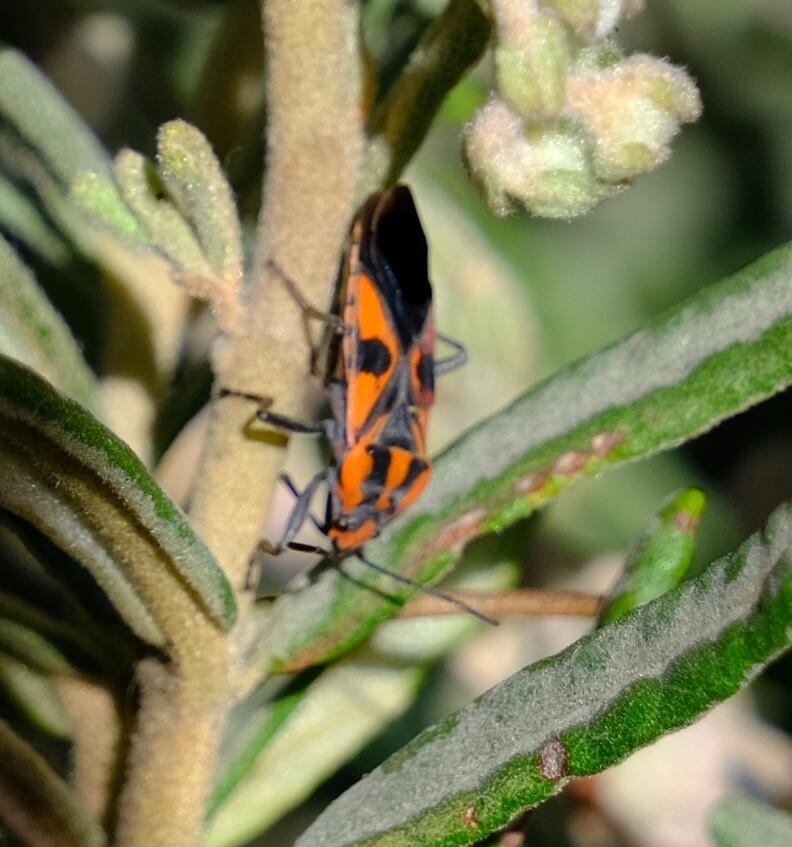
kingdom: Animalia
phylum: Arthropoda
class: Insecta
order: Hemiptera
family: Lygaeidae
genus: Spilostethus
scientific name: Spilostethus pacificus
